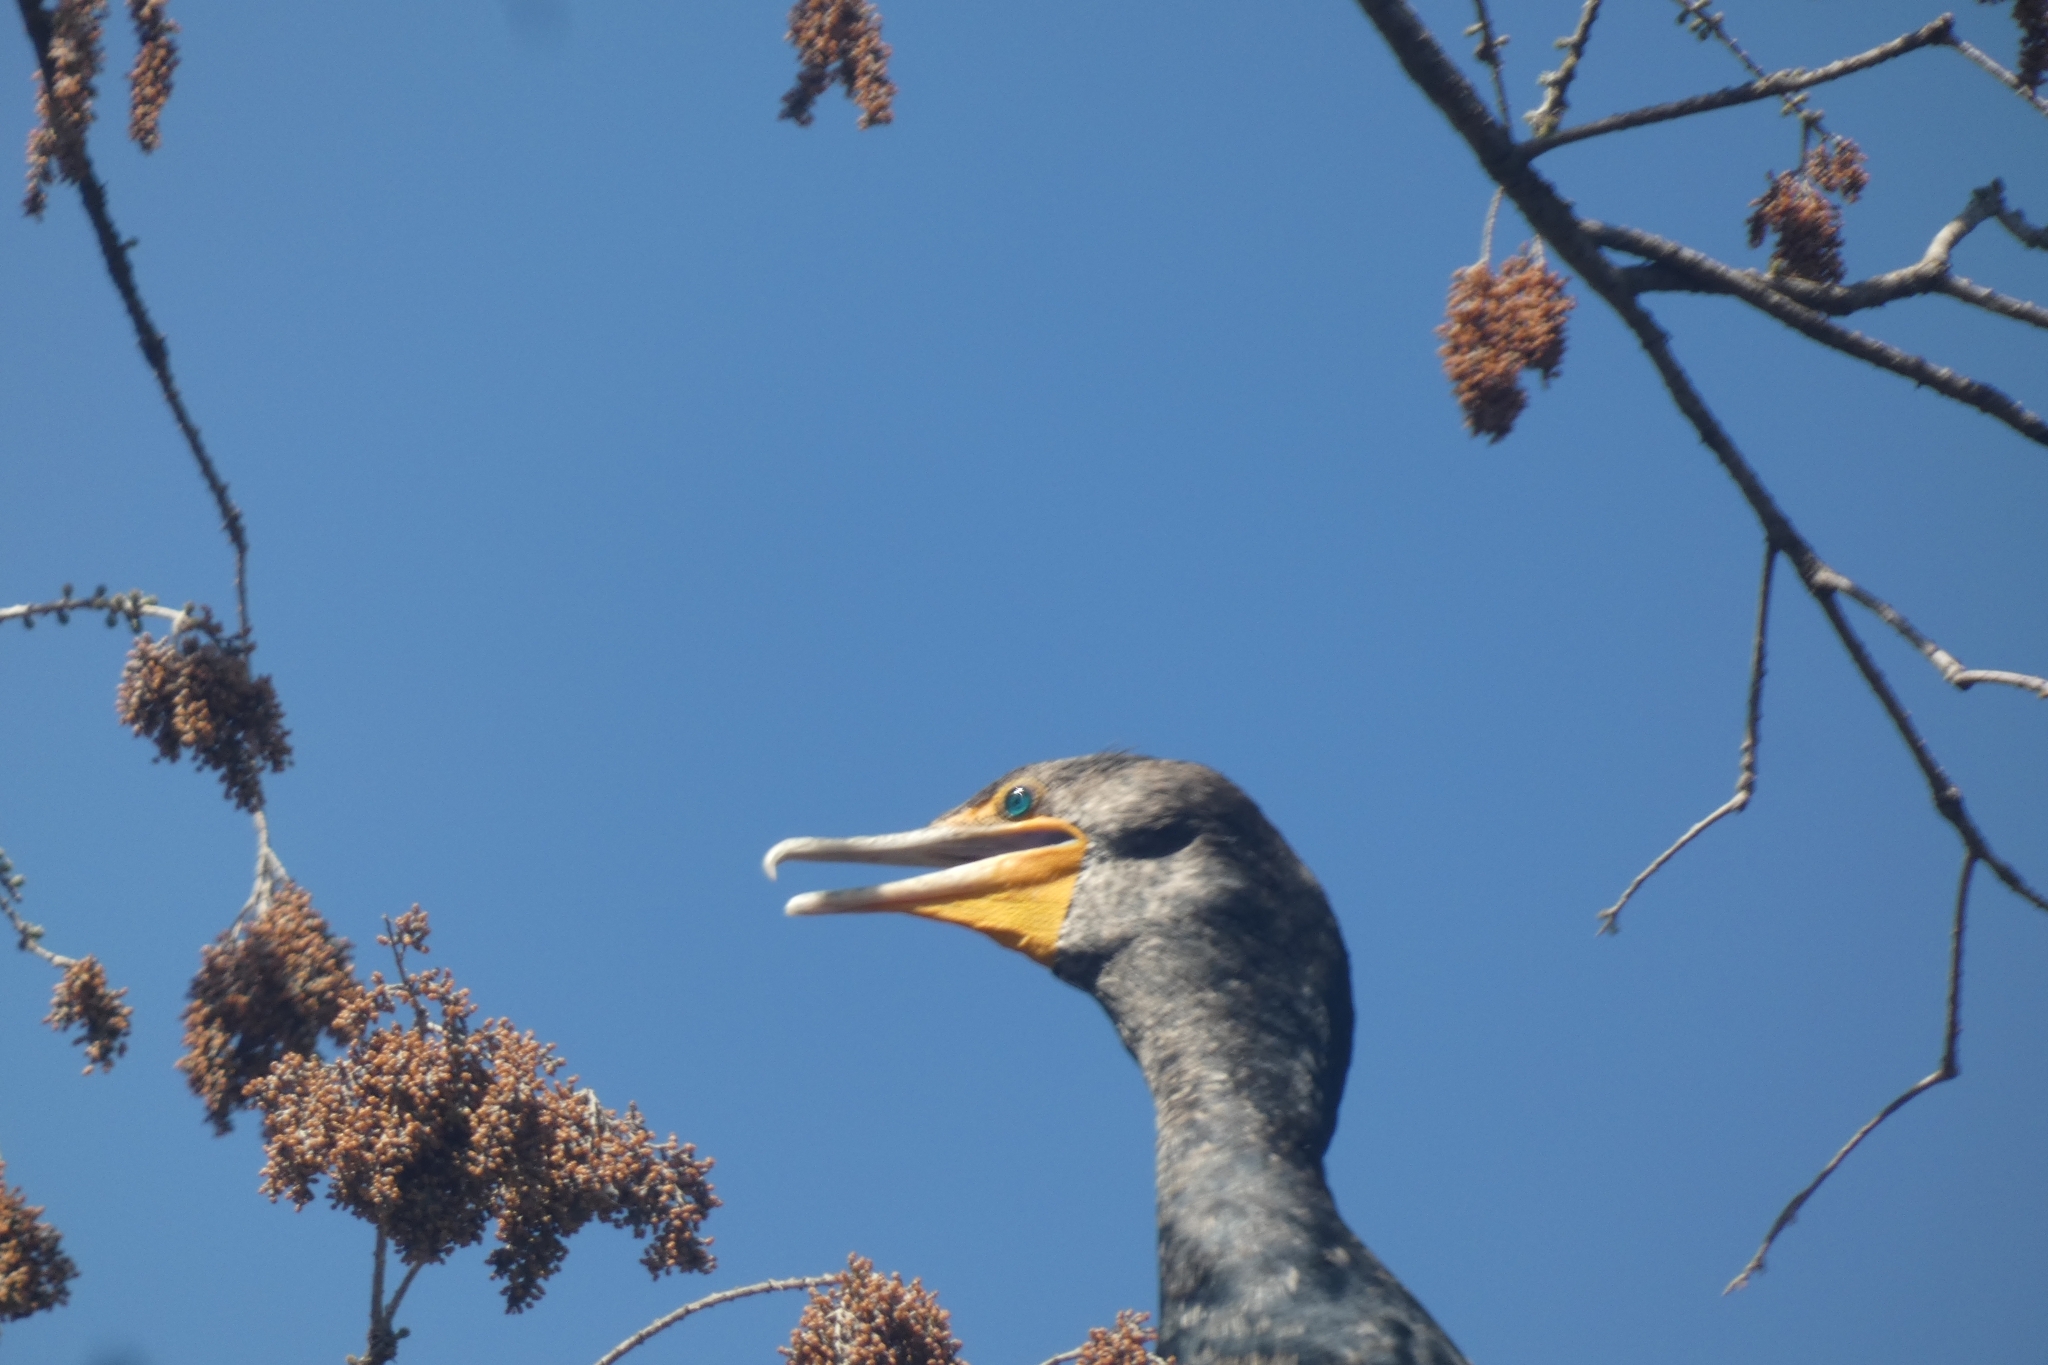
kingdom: Animalia
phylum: Chordata
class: Aves
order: Suliformes
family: Phalacrocoracidae
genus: Phalacrocorax
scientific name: Phalacrocorax auritus
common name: Double-crested cormorant
